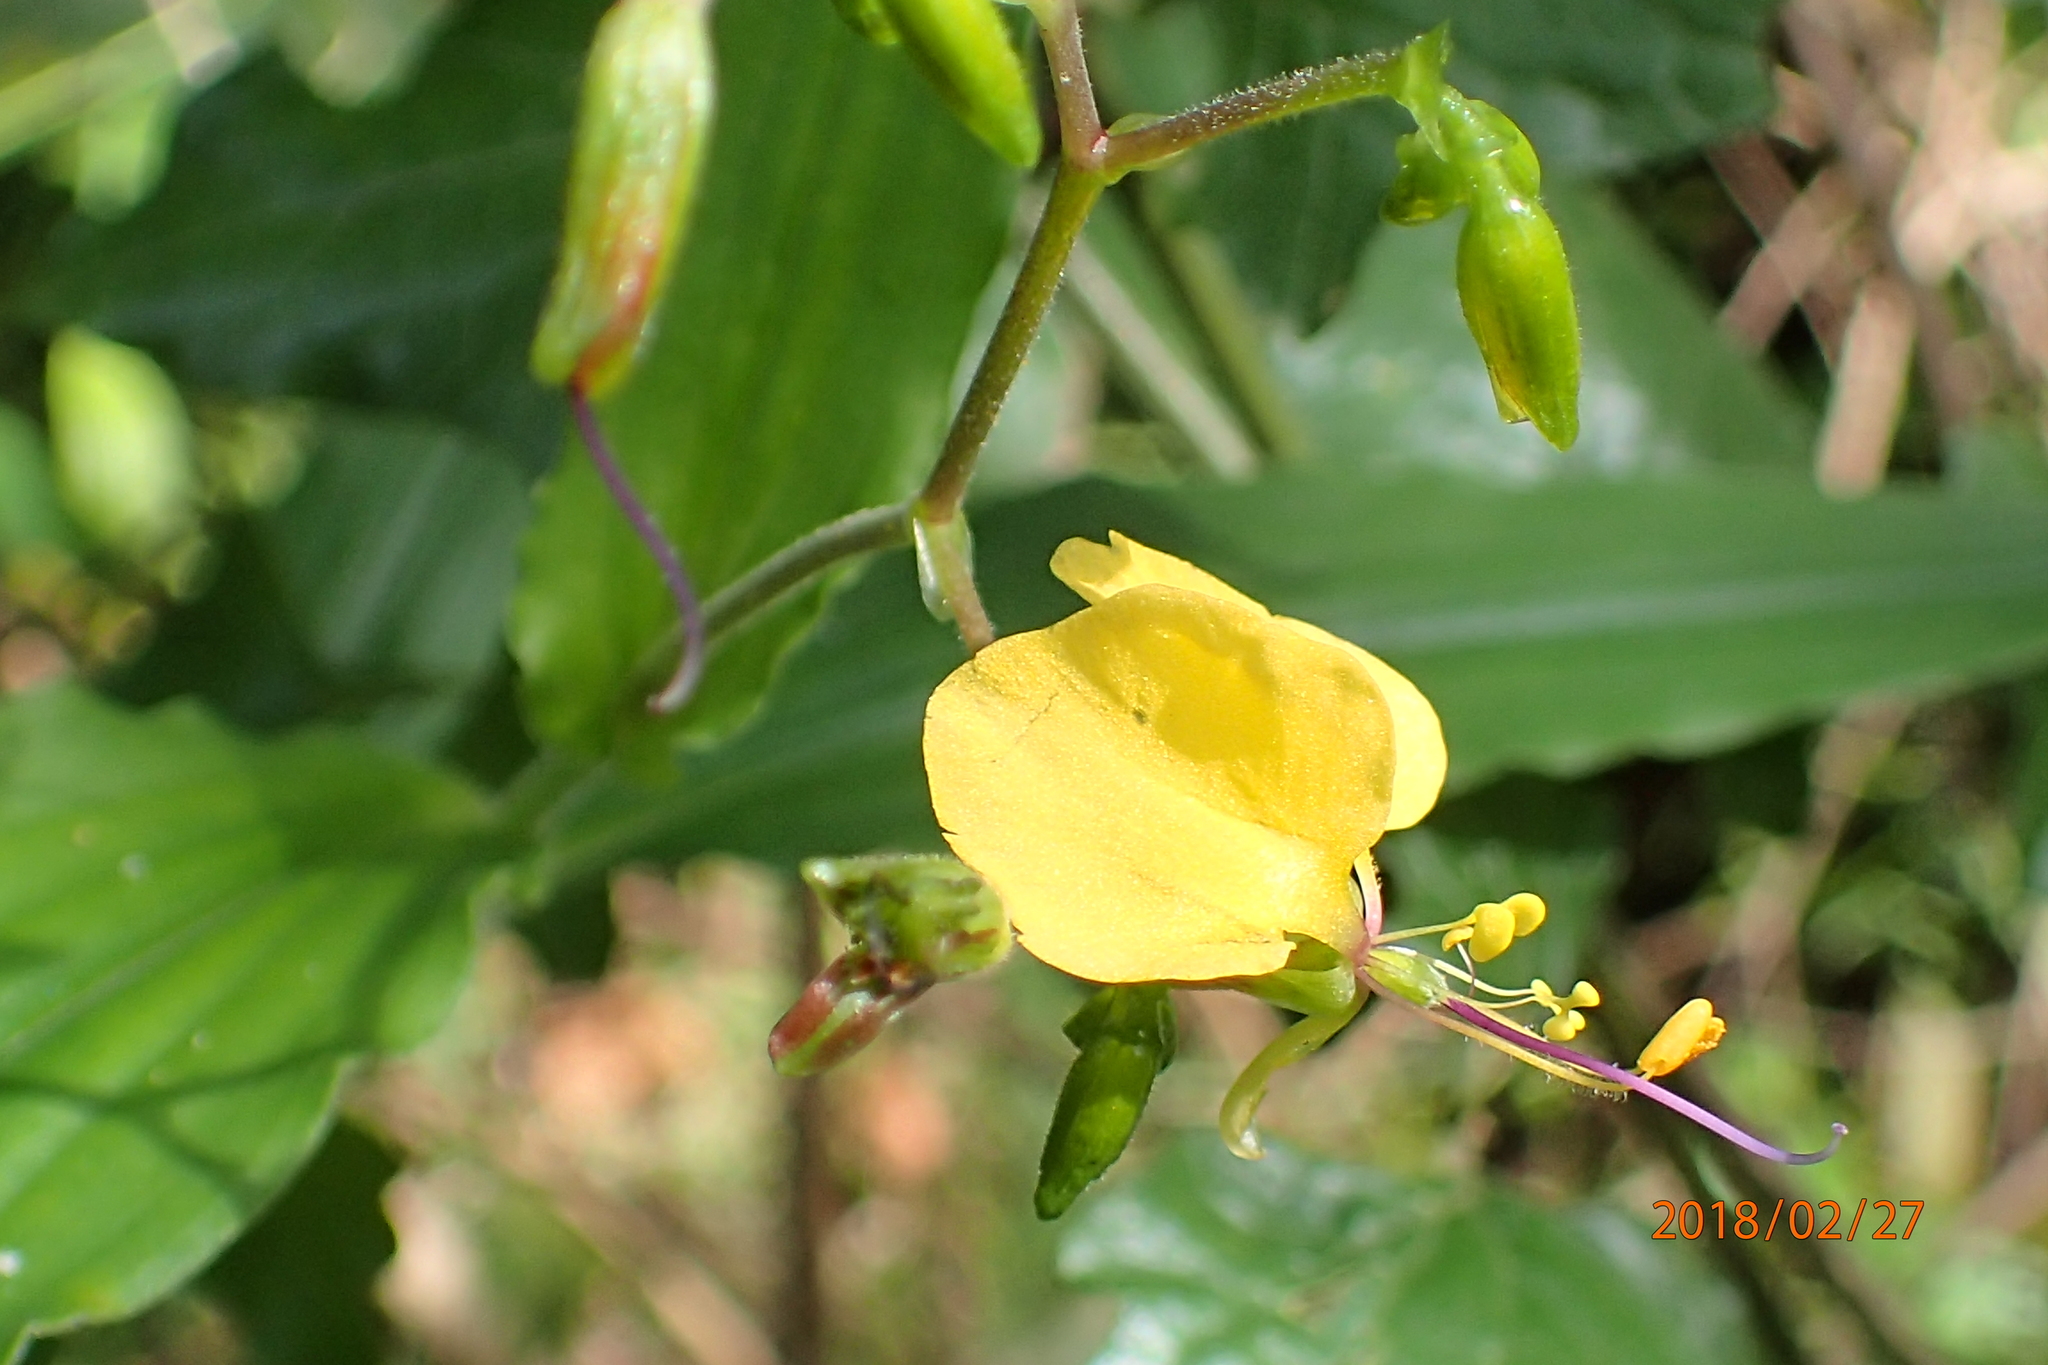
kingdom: Plantae
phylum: Tracheophyta
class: Liliopsida
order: Commelinales
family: Commelinaceae
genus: Aneilema
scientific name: Aneilema aequinoctiale
